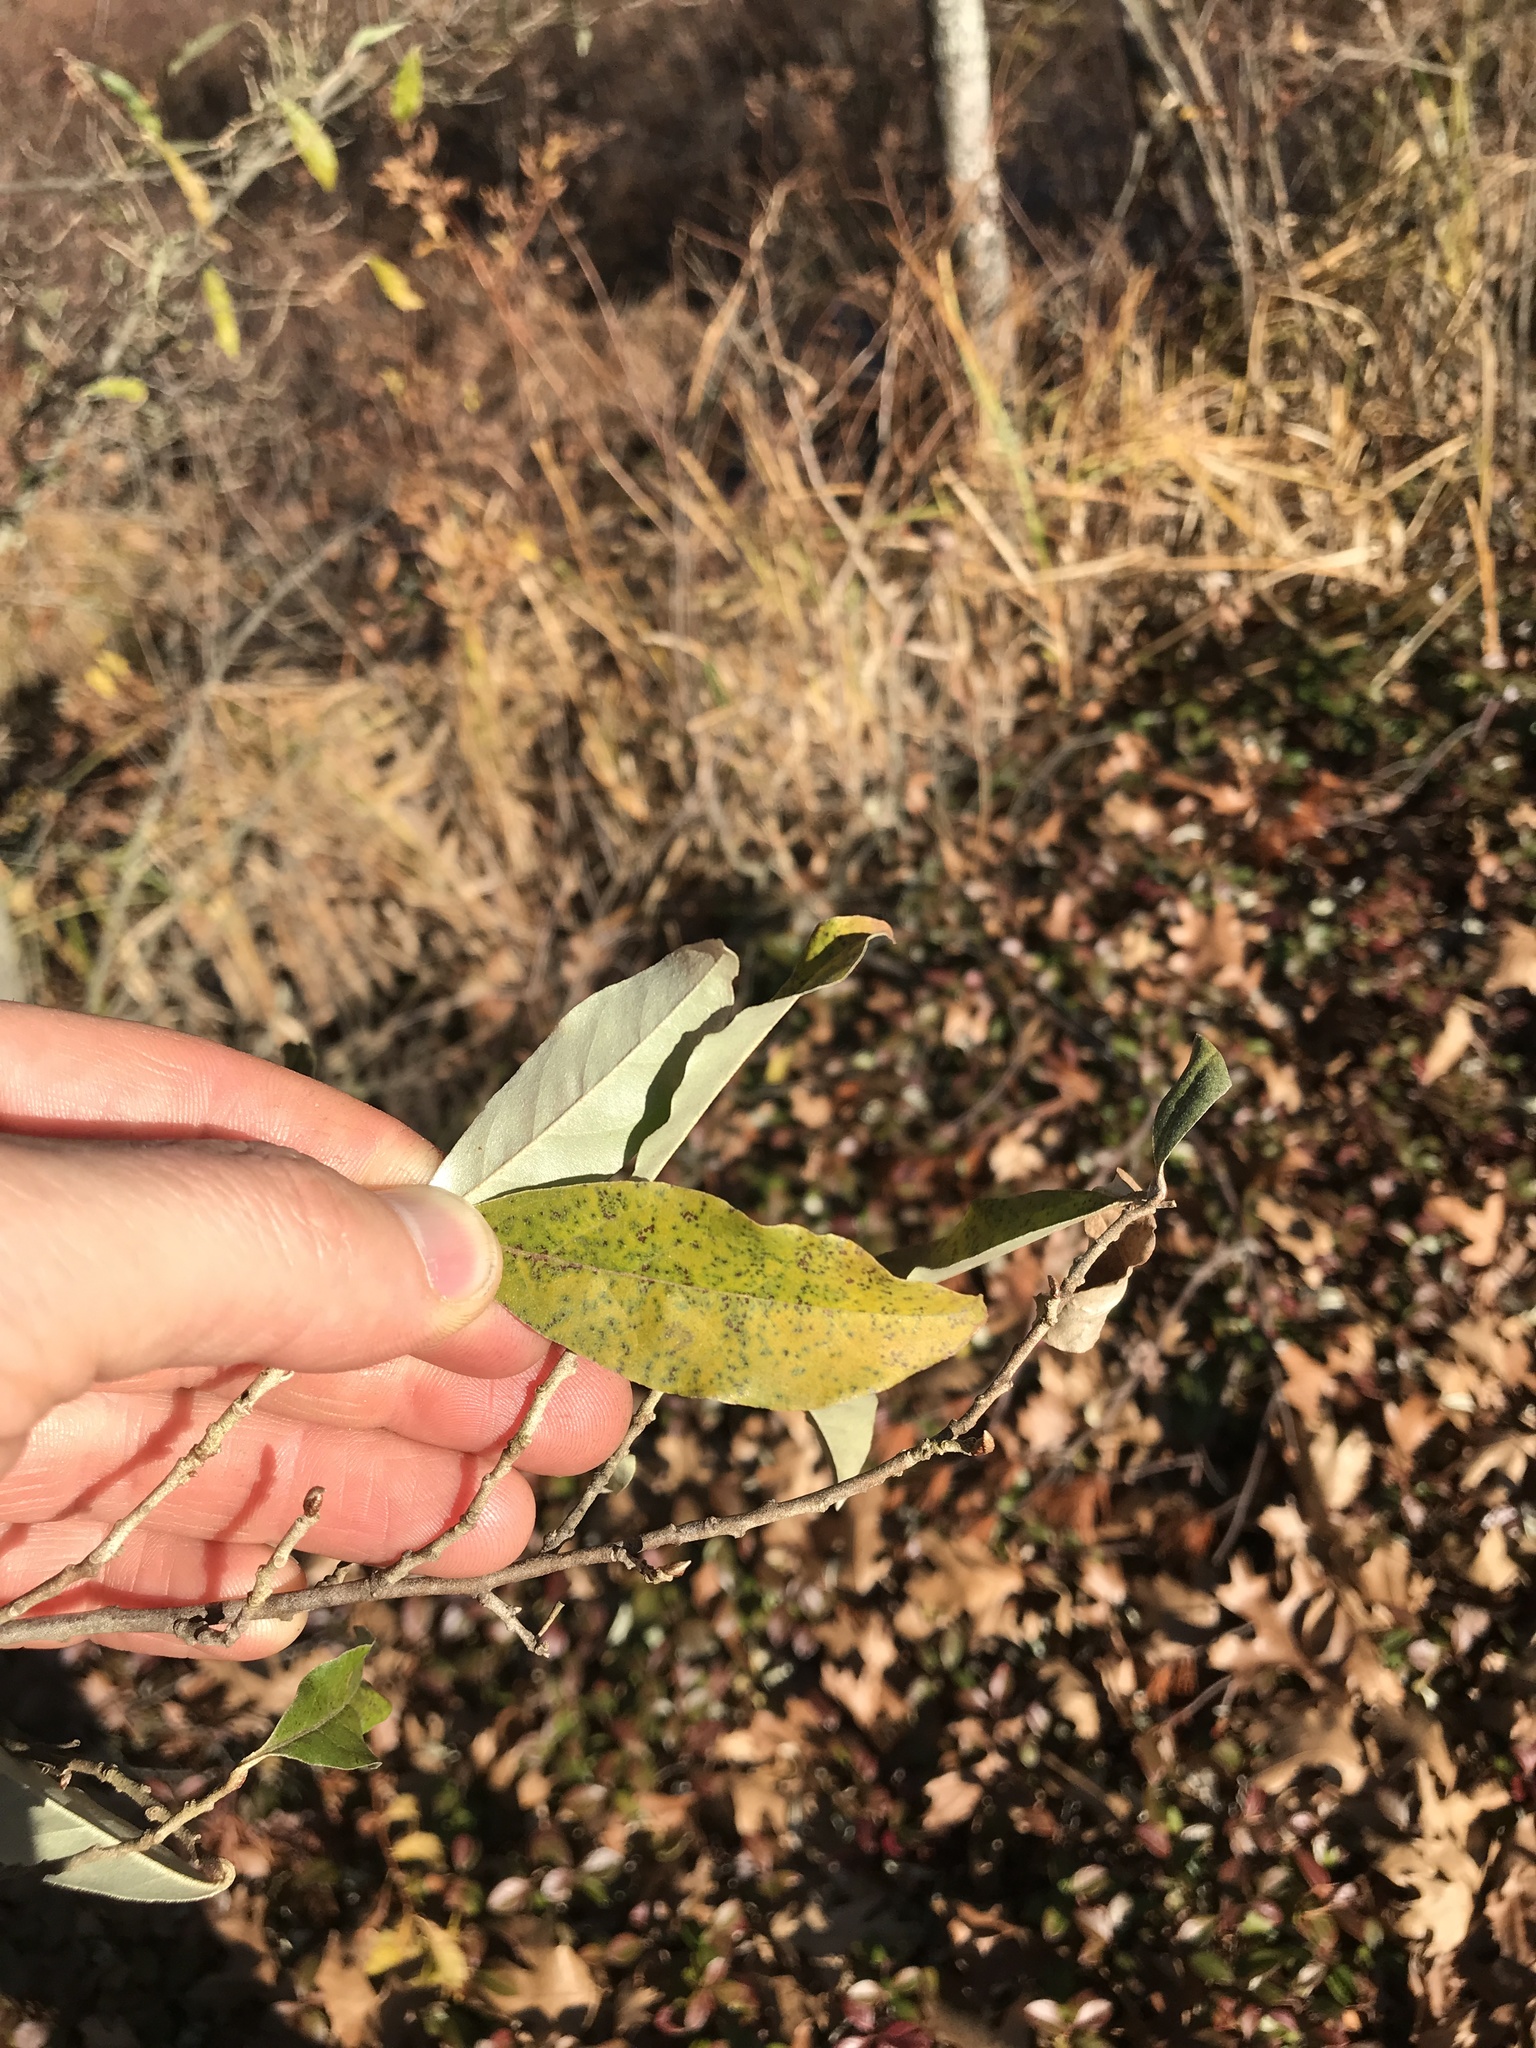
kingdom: Plantae
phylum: Tracheophyta
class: Magnoliopsida
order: Rosales
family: Elaeagnaceae
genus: Elaeagnus
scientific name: Elaeagnus umbellata
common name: Autumn olive
